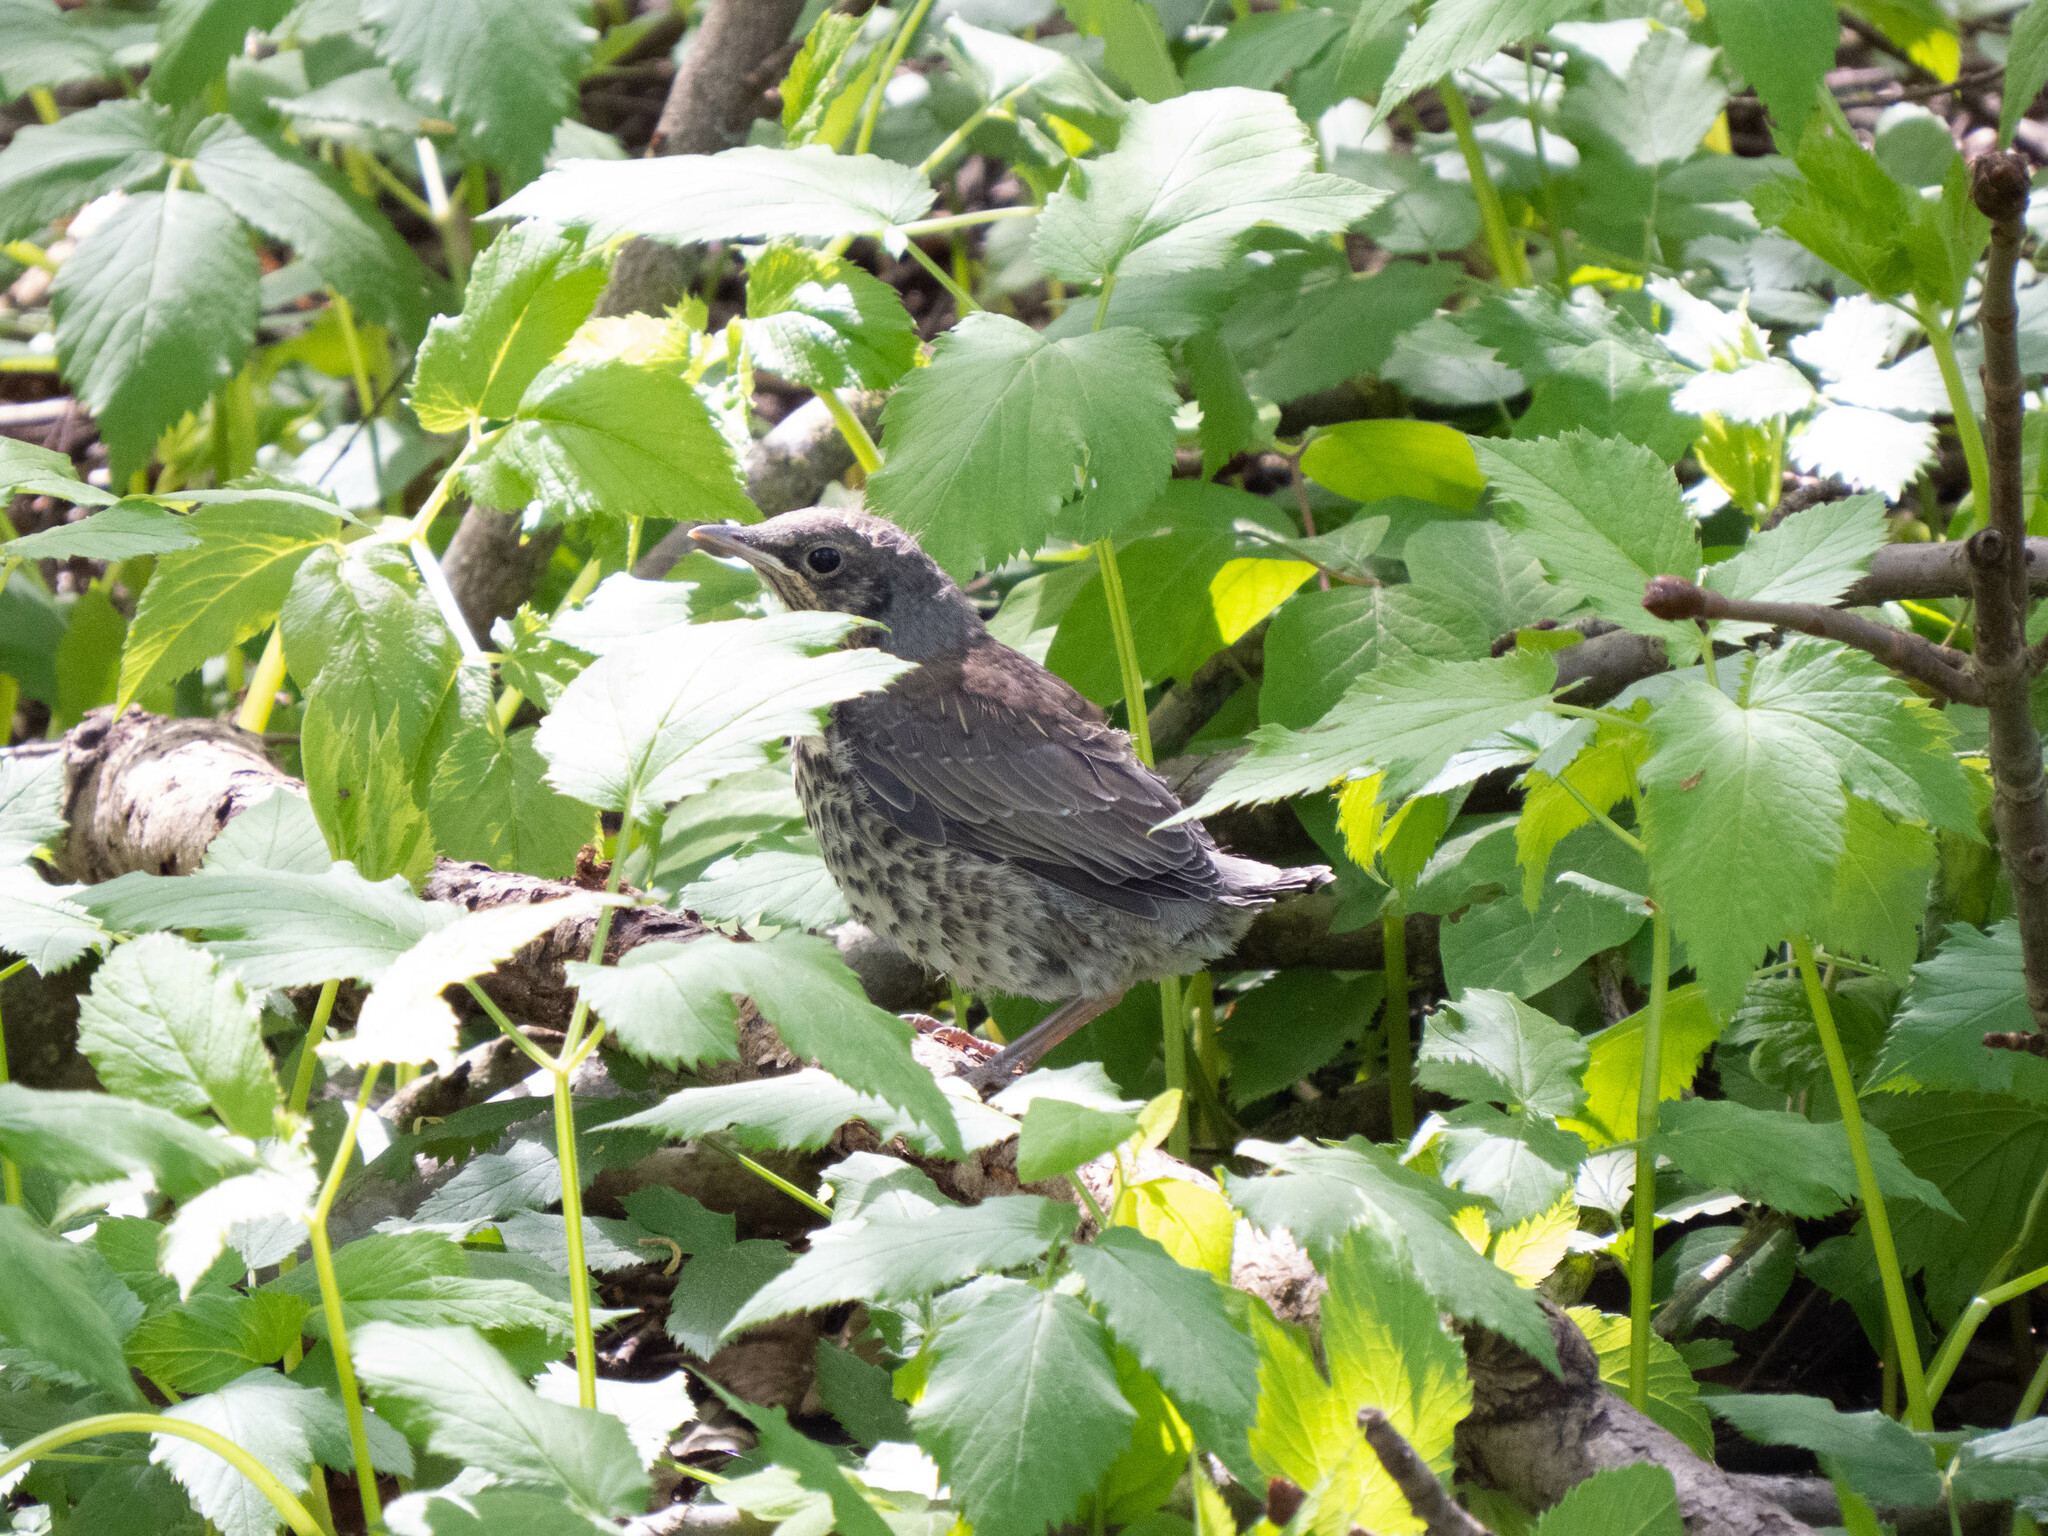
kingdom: Animalia
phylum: Chordata
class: Aves
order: Passeriformes
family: Turdidae
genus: Turdus
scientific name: Turdus pilaris
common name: Fieldfare
